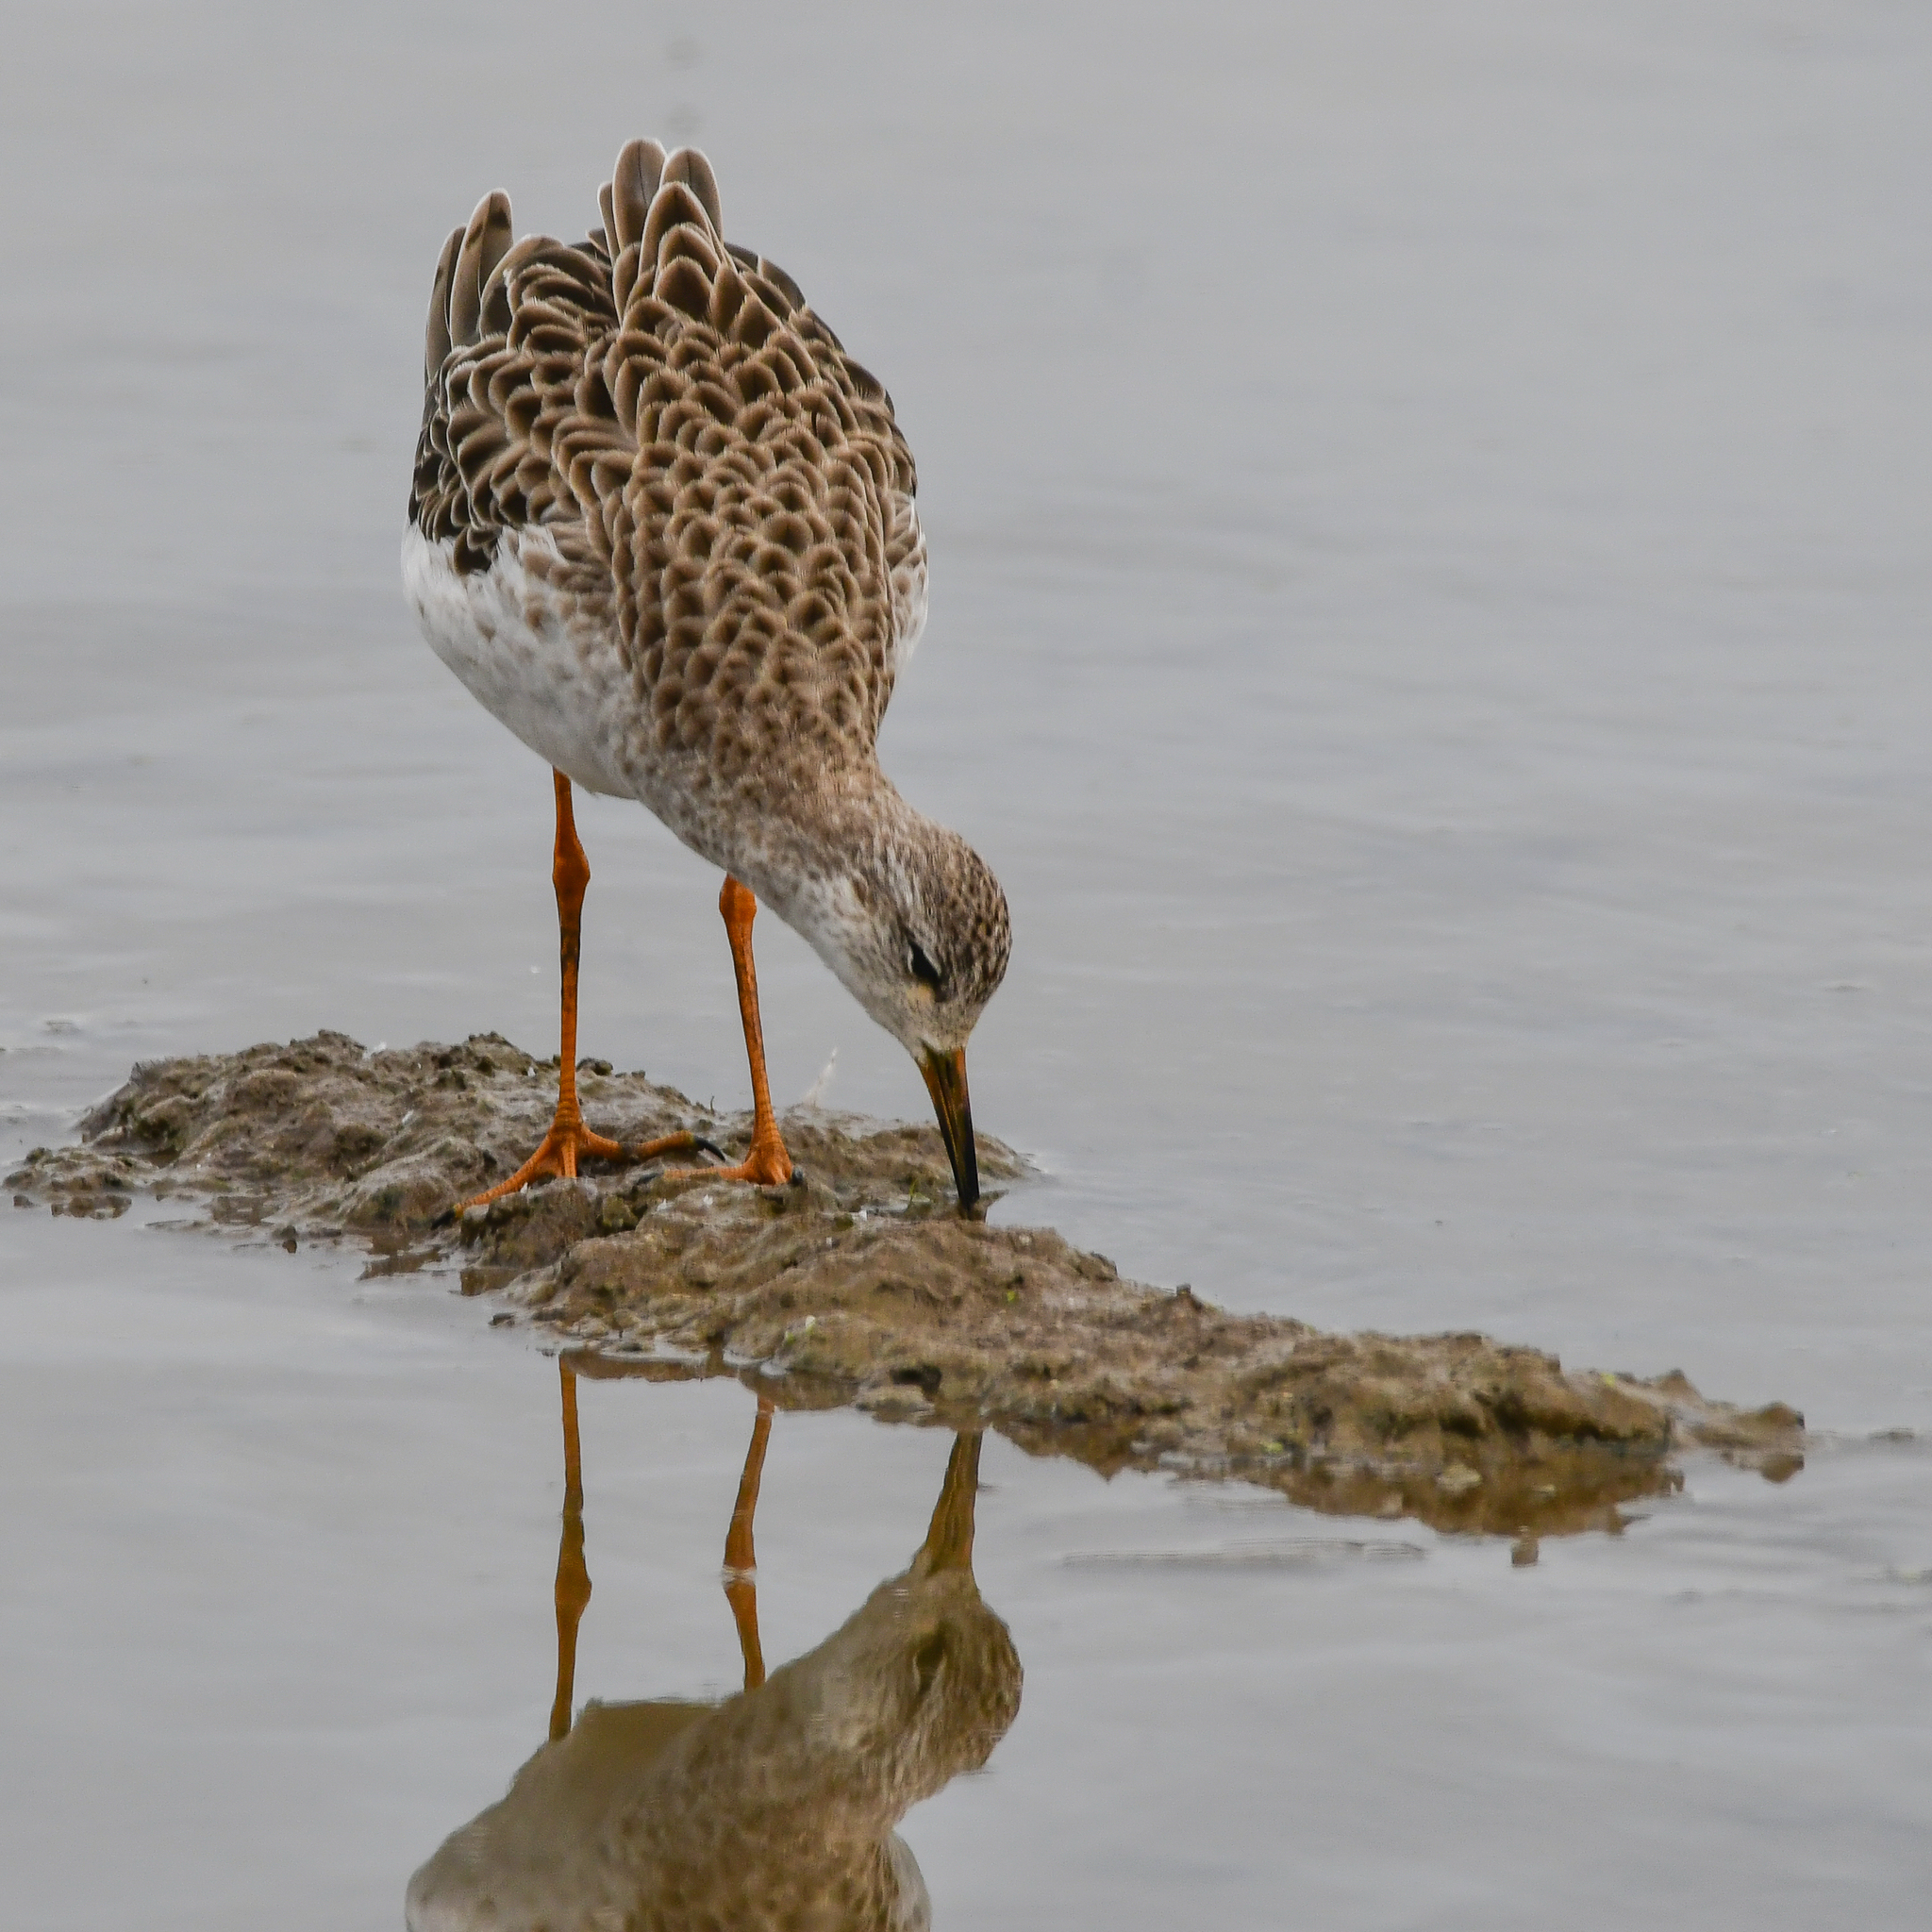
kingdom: Animalia
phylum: Chordata
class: Aves
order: Charadriiformes
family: Scolopacidae
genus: Calidris
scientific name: Calidris pugnax
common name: Ruff
